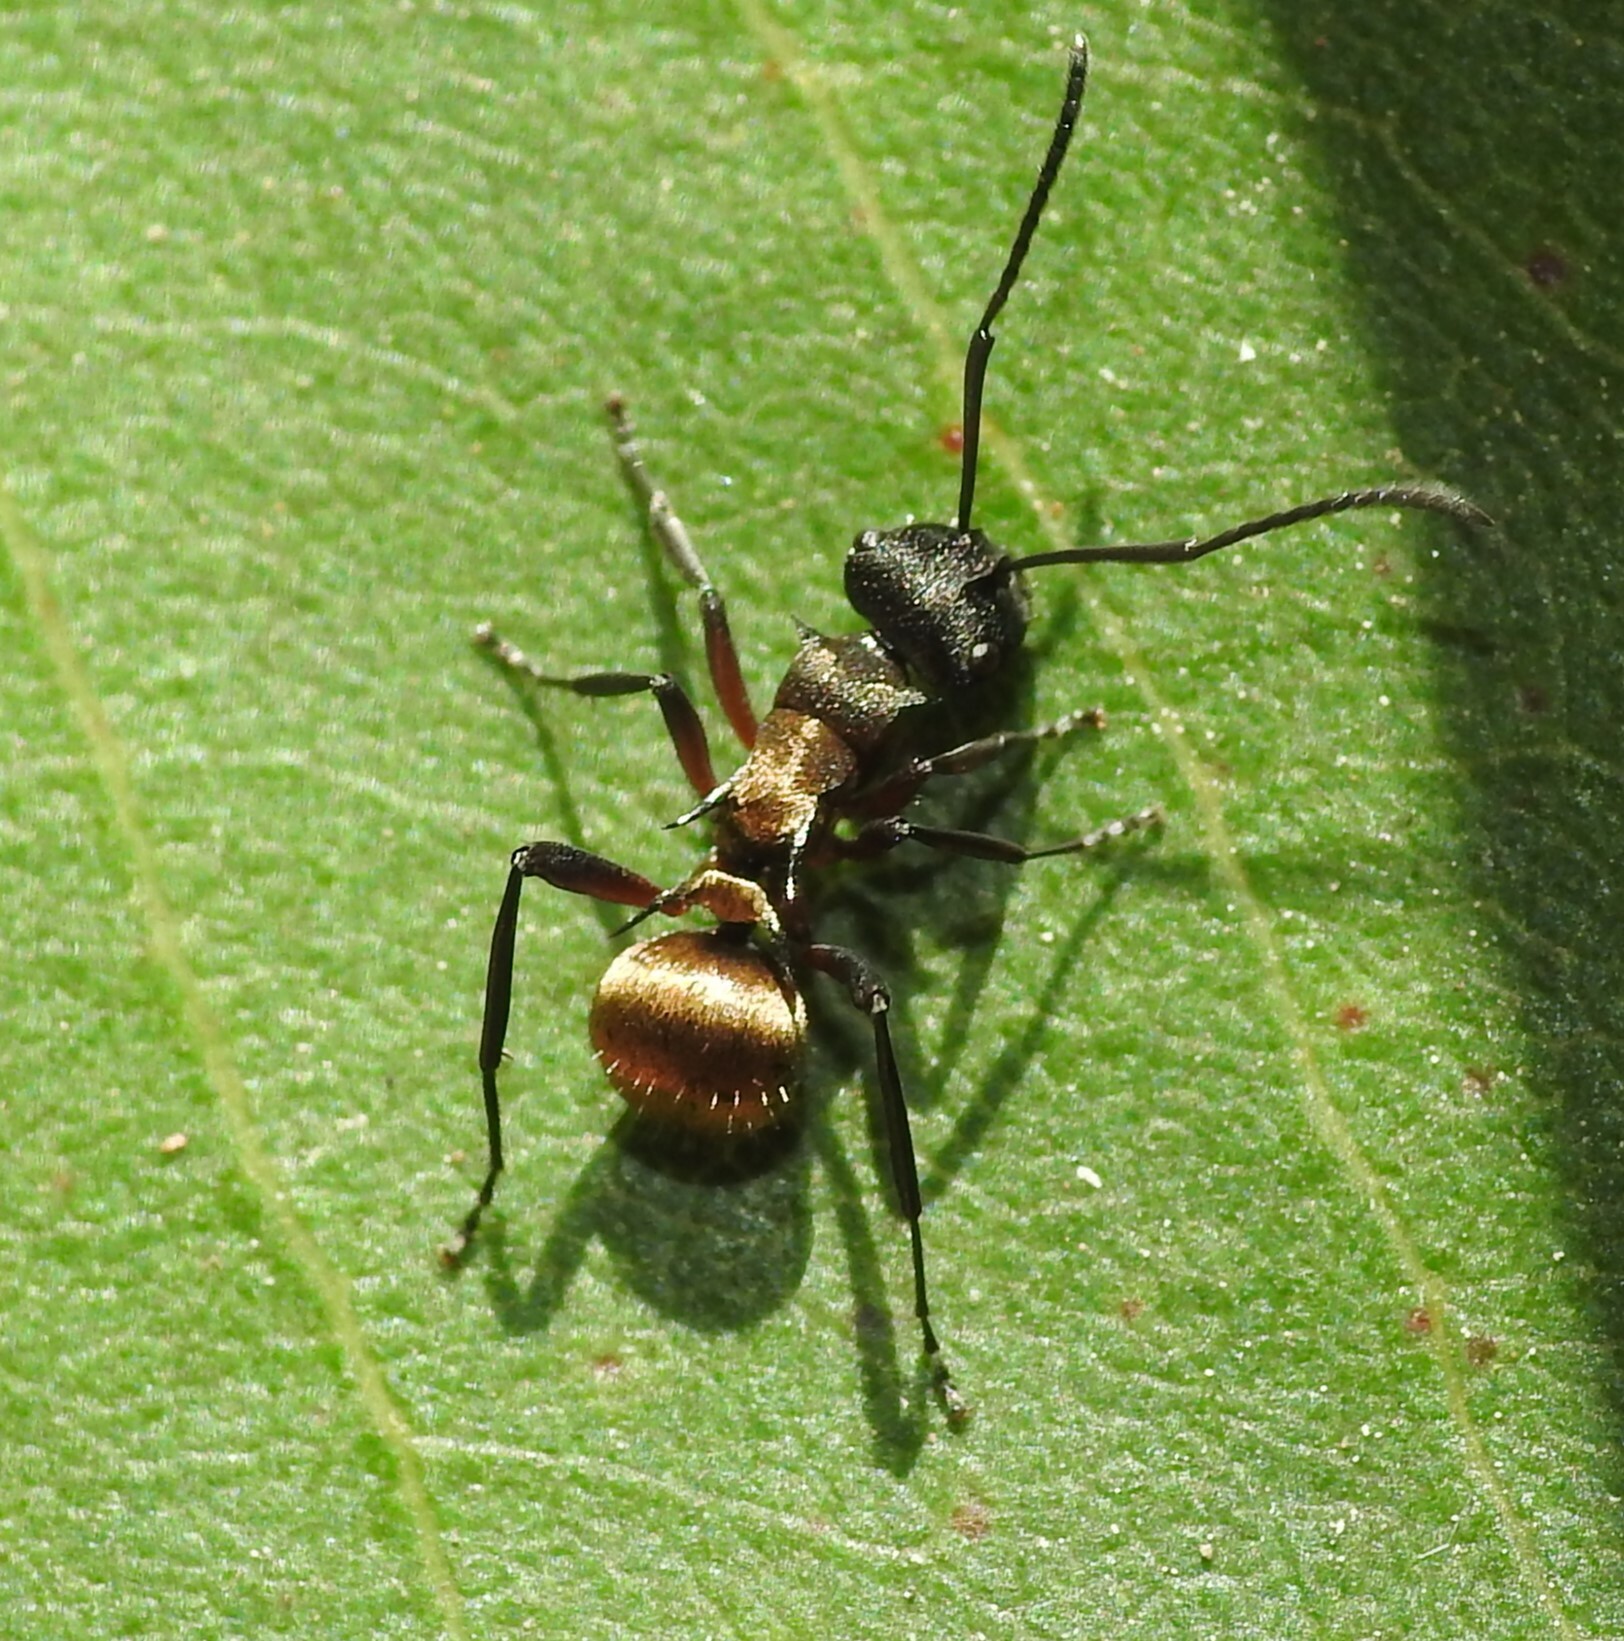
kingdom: Animalia
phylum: Arthropoda
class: Insecta
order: Hymenoptera
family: Formicidae
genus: Polyrhachis
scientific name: Polyrhachis rufifemur
